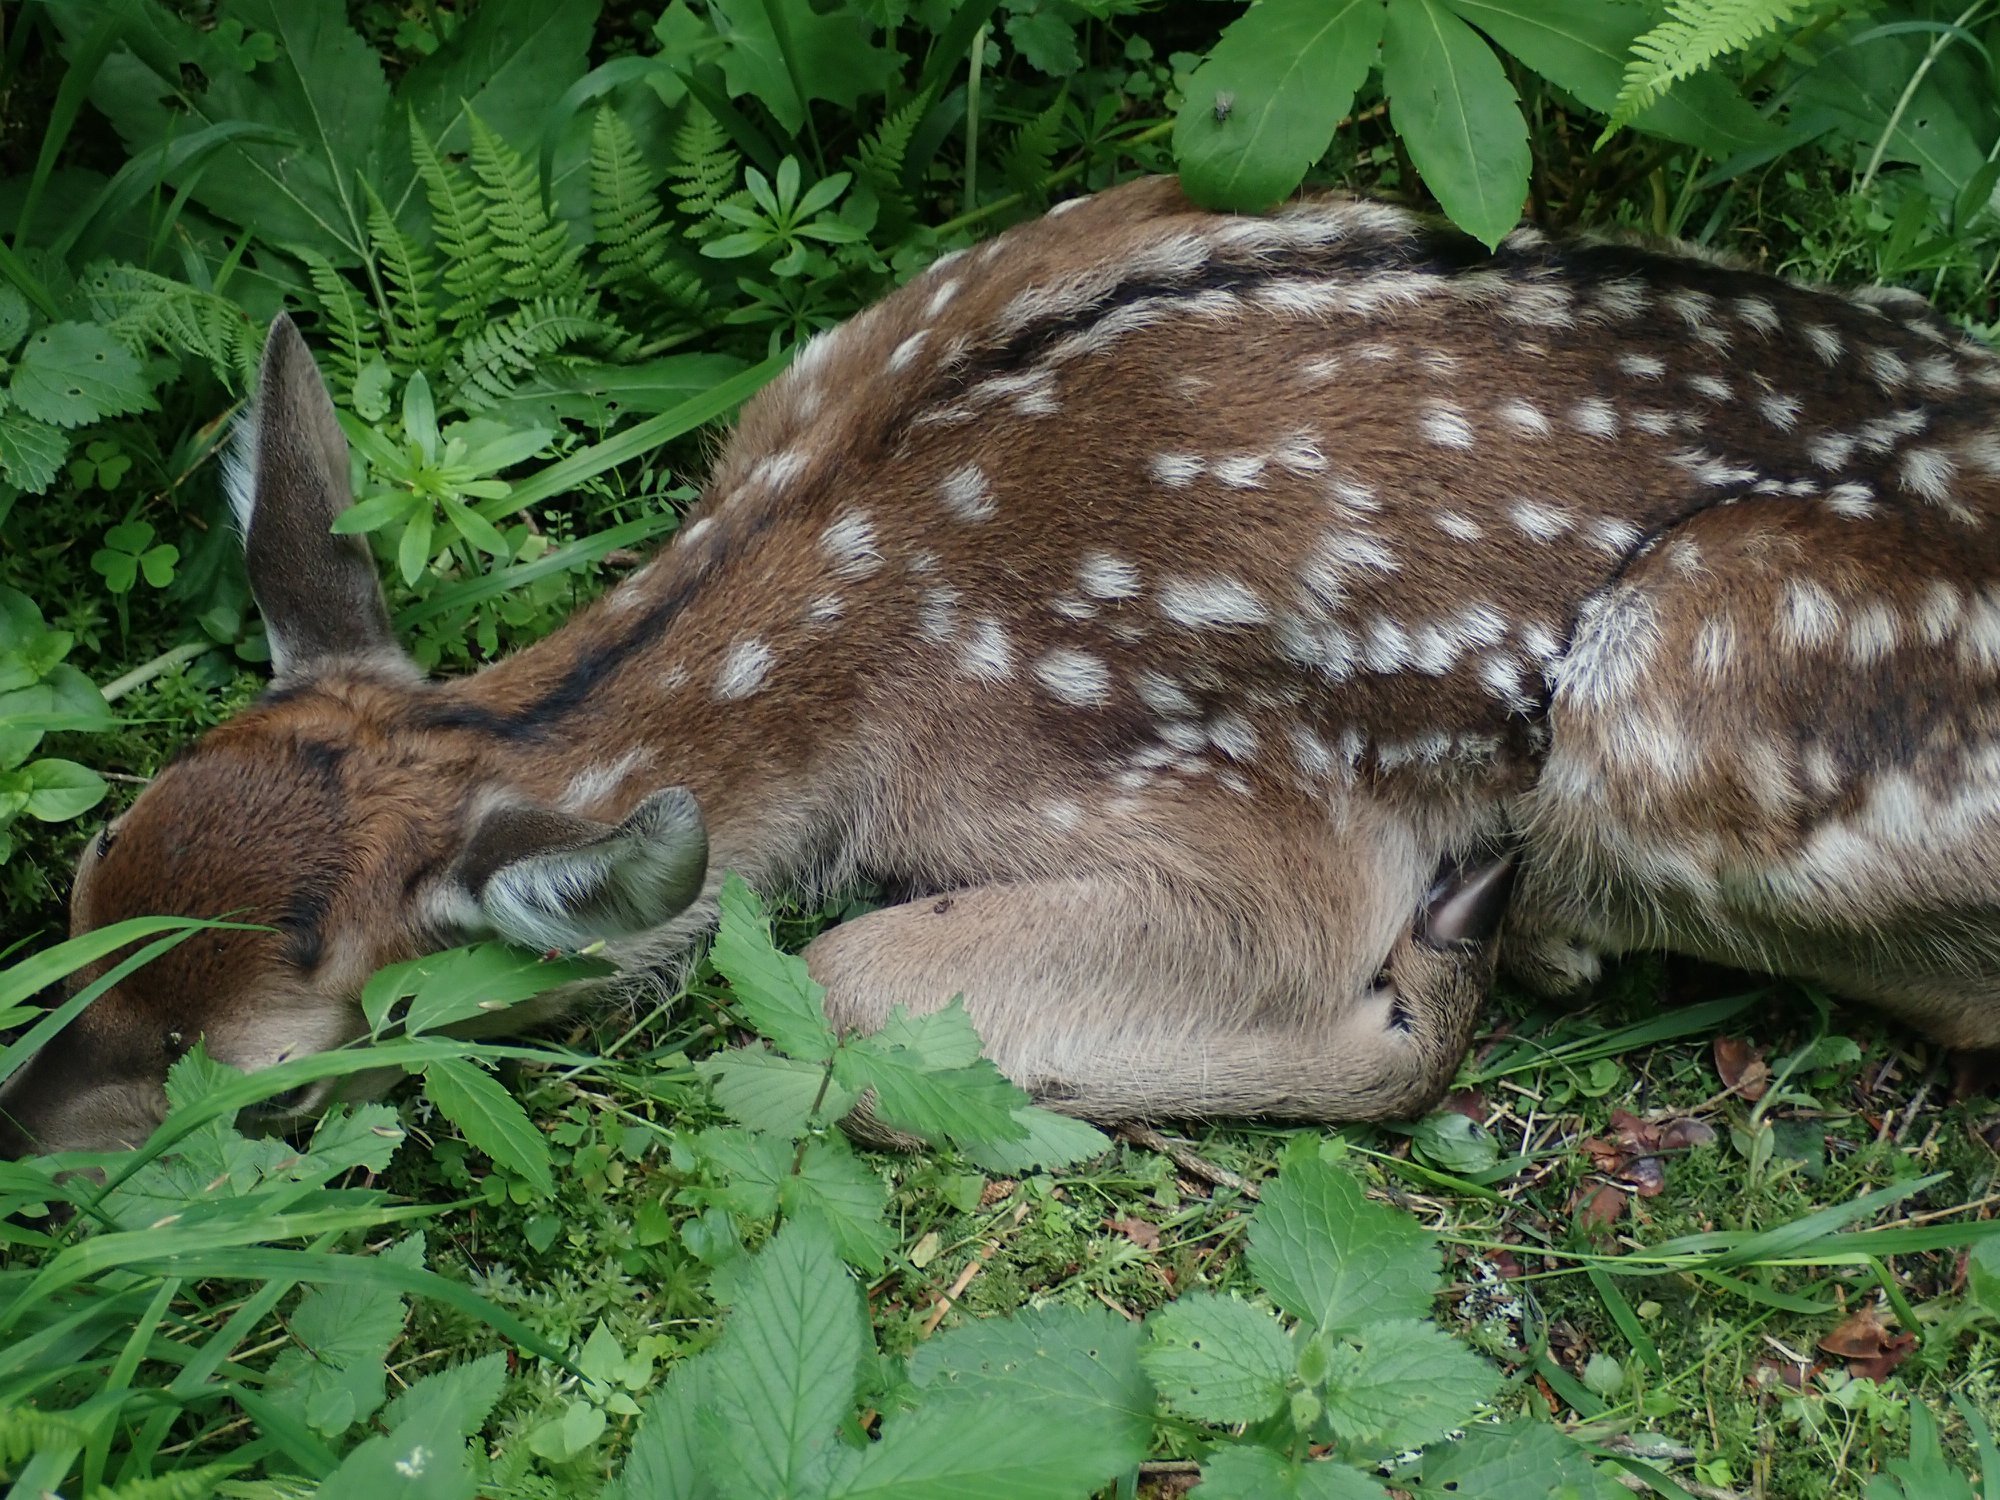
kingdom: Animalia
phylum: Chordata
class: Mammalia
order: Artiodactyla
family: Cervidae
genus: Cervus
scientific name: Cervus elaphus
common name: Red deer
